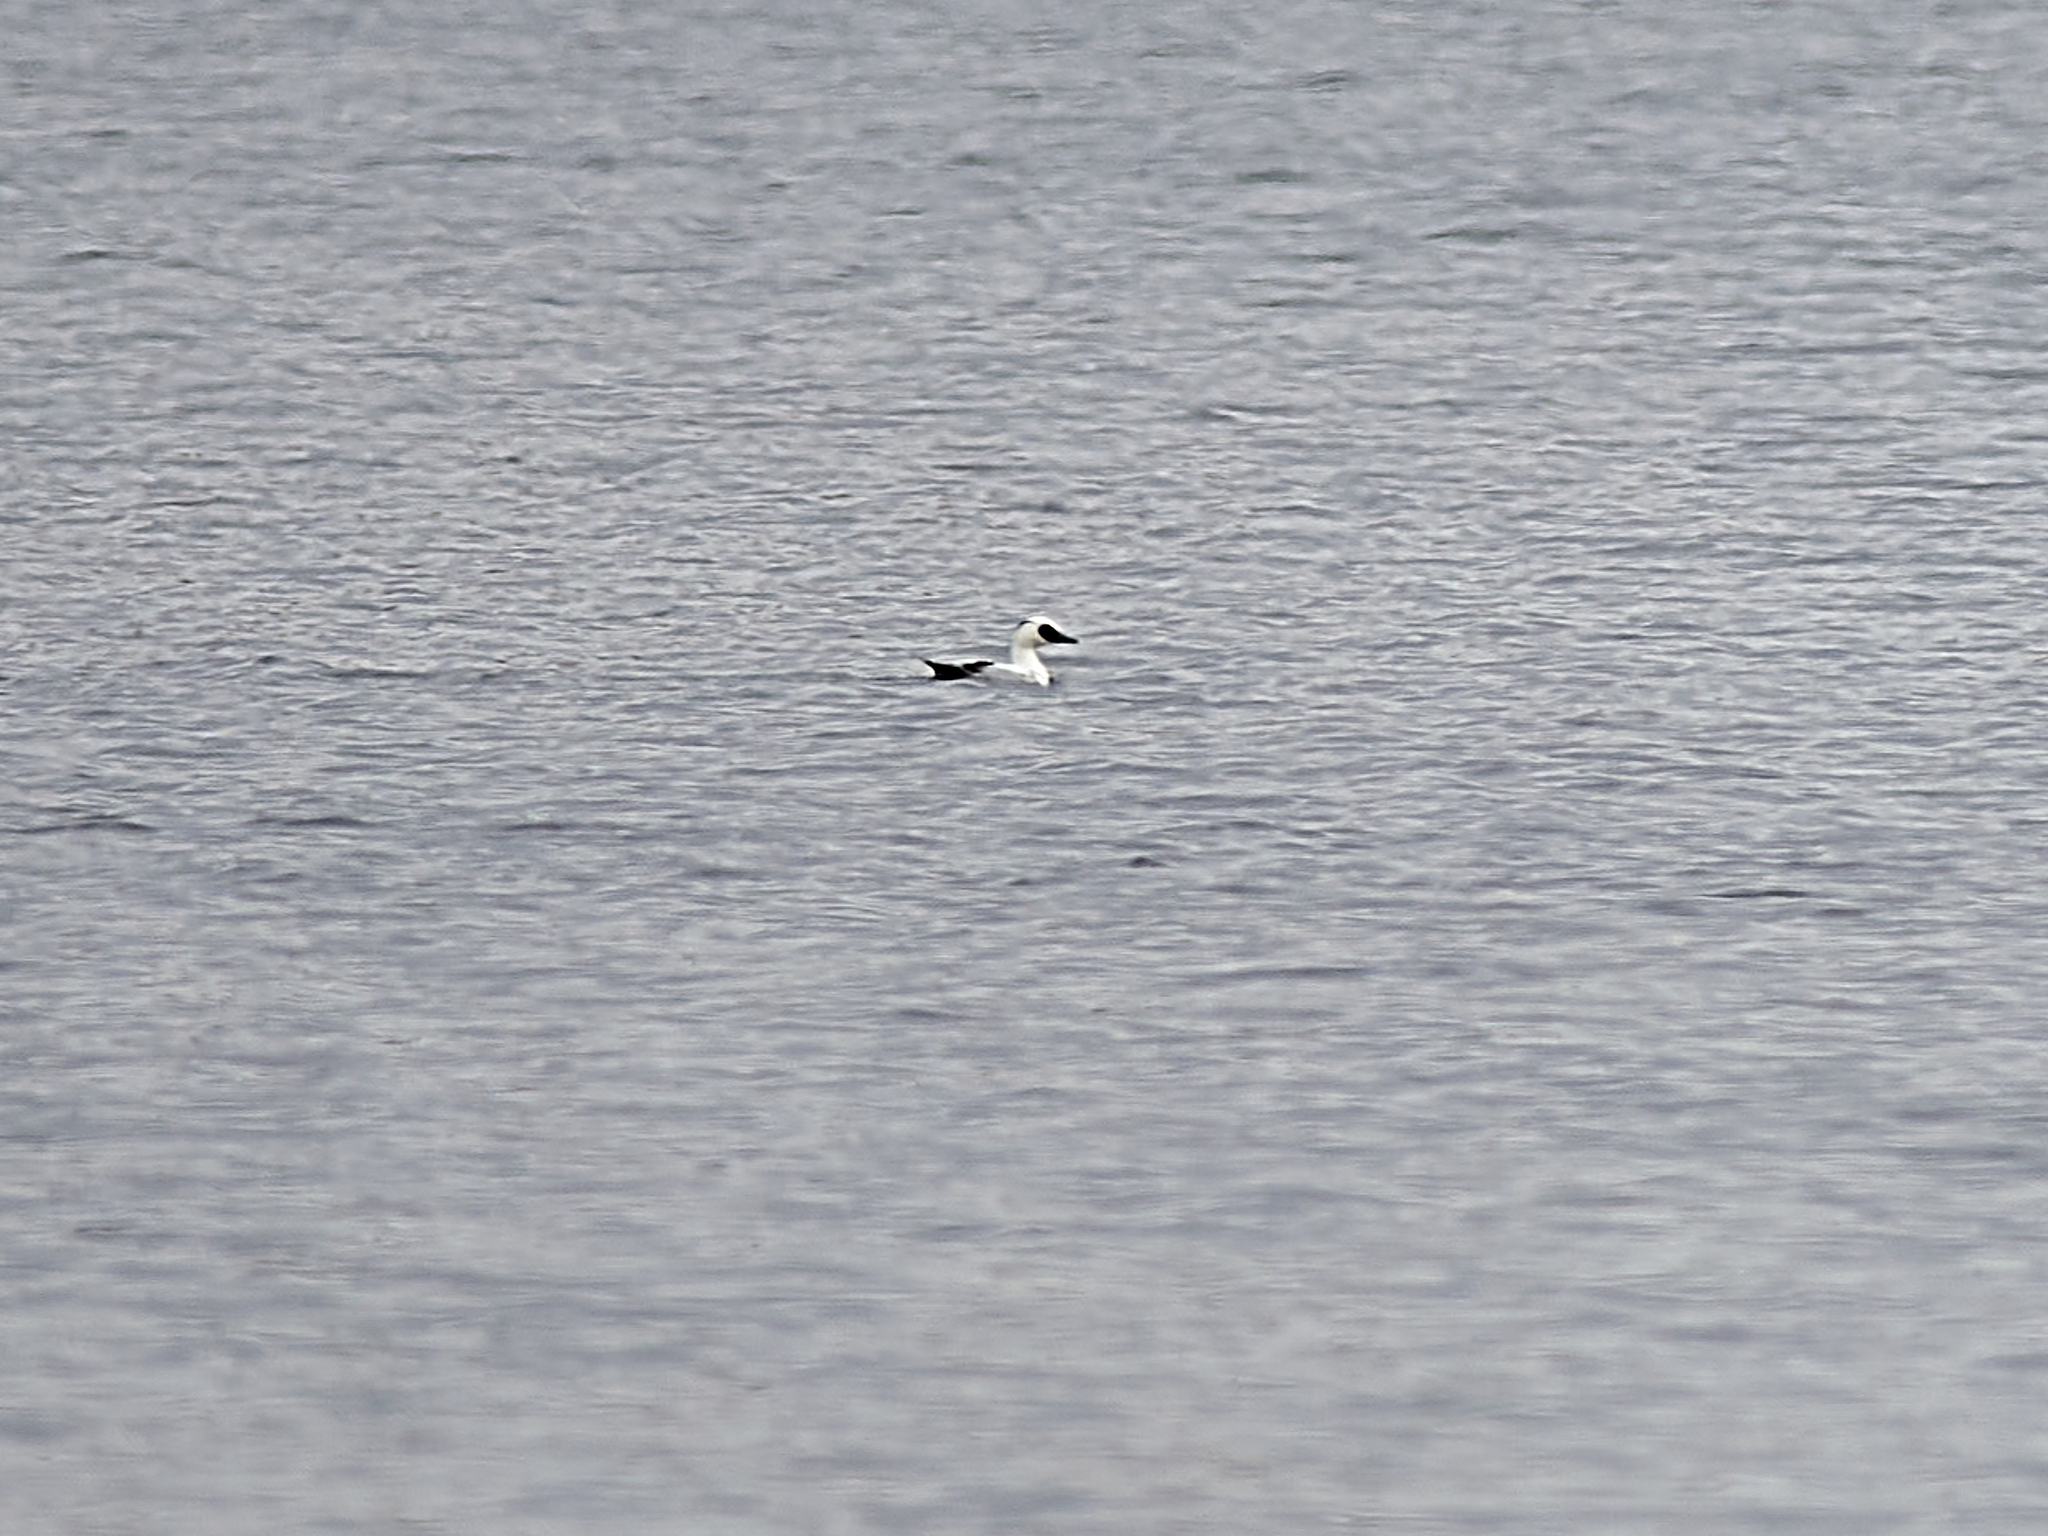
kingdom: Animalia
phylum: Chordata
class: Aves
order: Anseriformes
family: Anatidae
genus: Mergellus
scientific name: Mergellus albellus
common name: Smew
